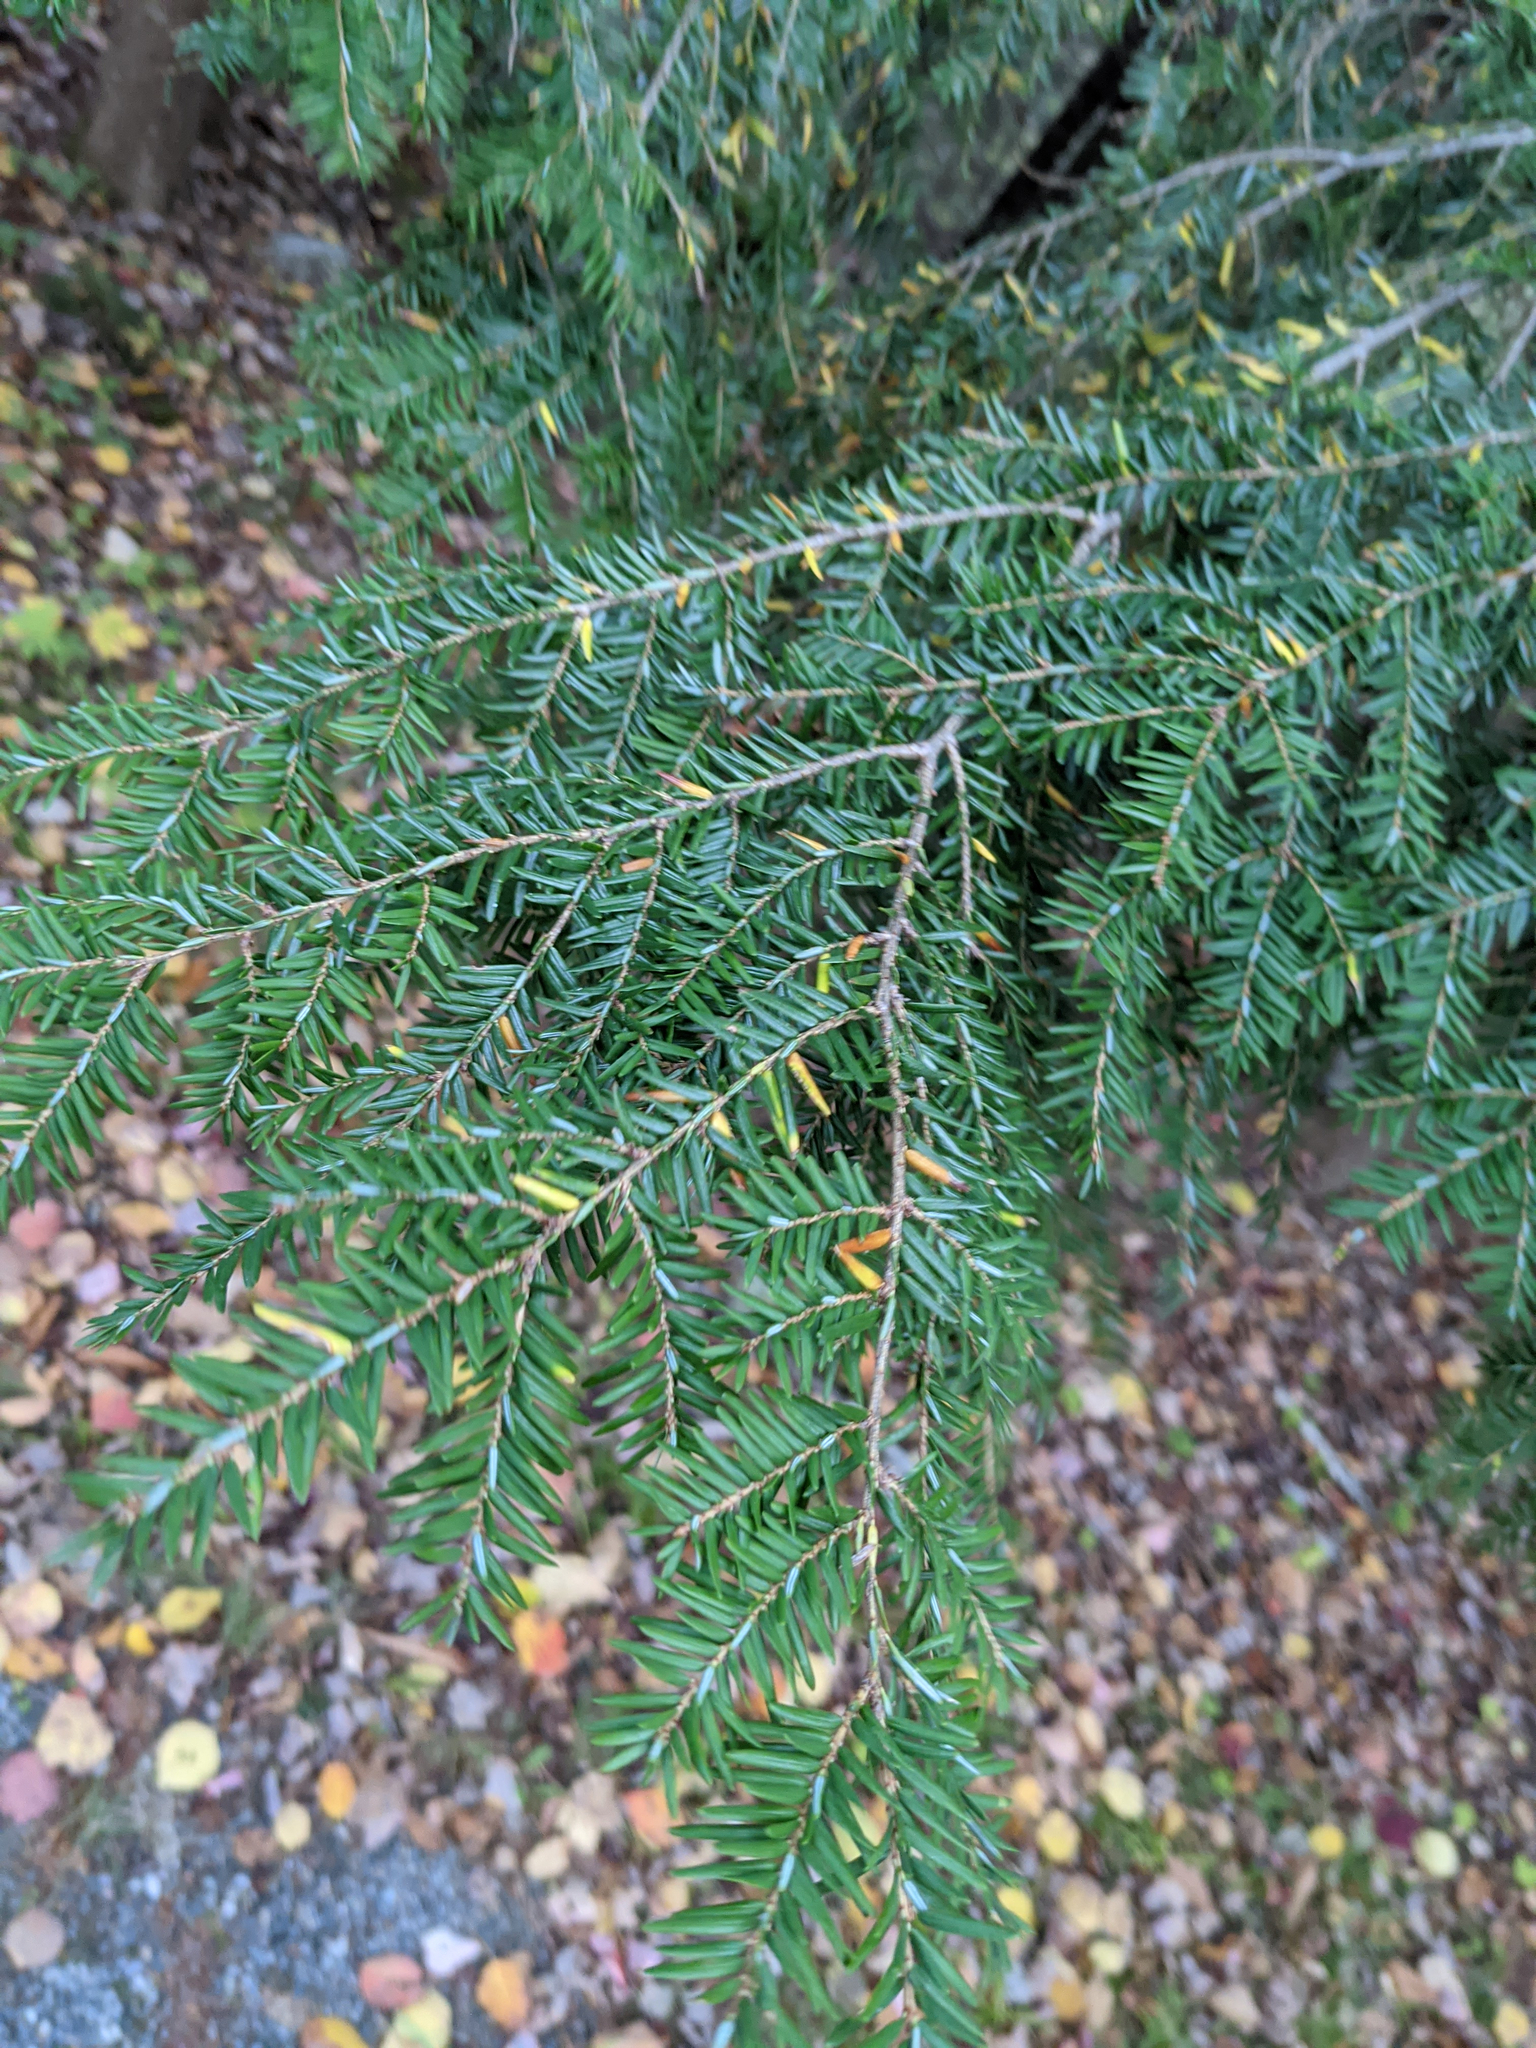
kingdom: Plantae
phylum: Tracheophyta
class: Pinopsida
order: Pinales
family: Pinaceae
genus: Tsuga
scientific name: Tsuga canadensis
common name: Eastern hemlock
